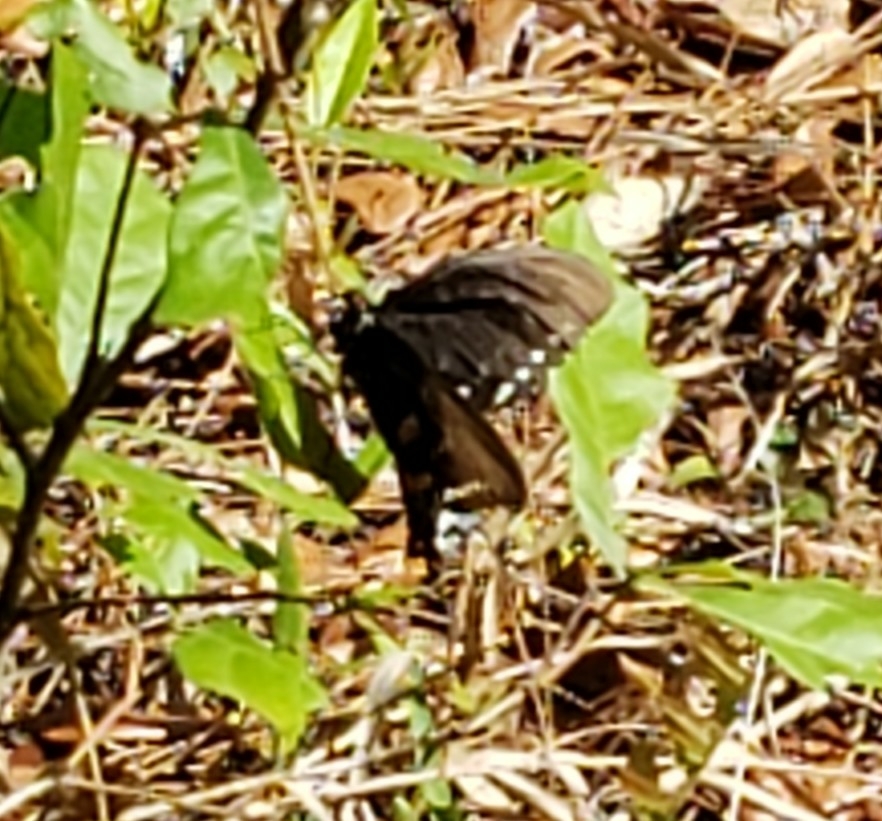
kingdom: Animalia
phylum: Arthropoda
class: Insecta
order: Lepidoptera
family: Papilionidae
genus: Papilio
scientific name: Papilio troilus
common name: Spicebush swallowtail
